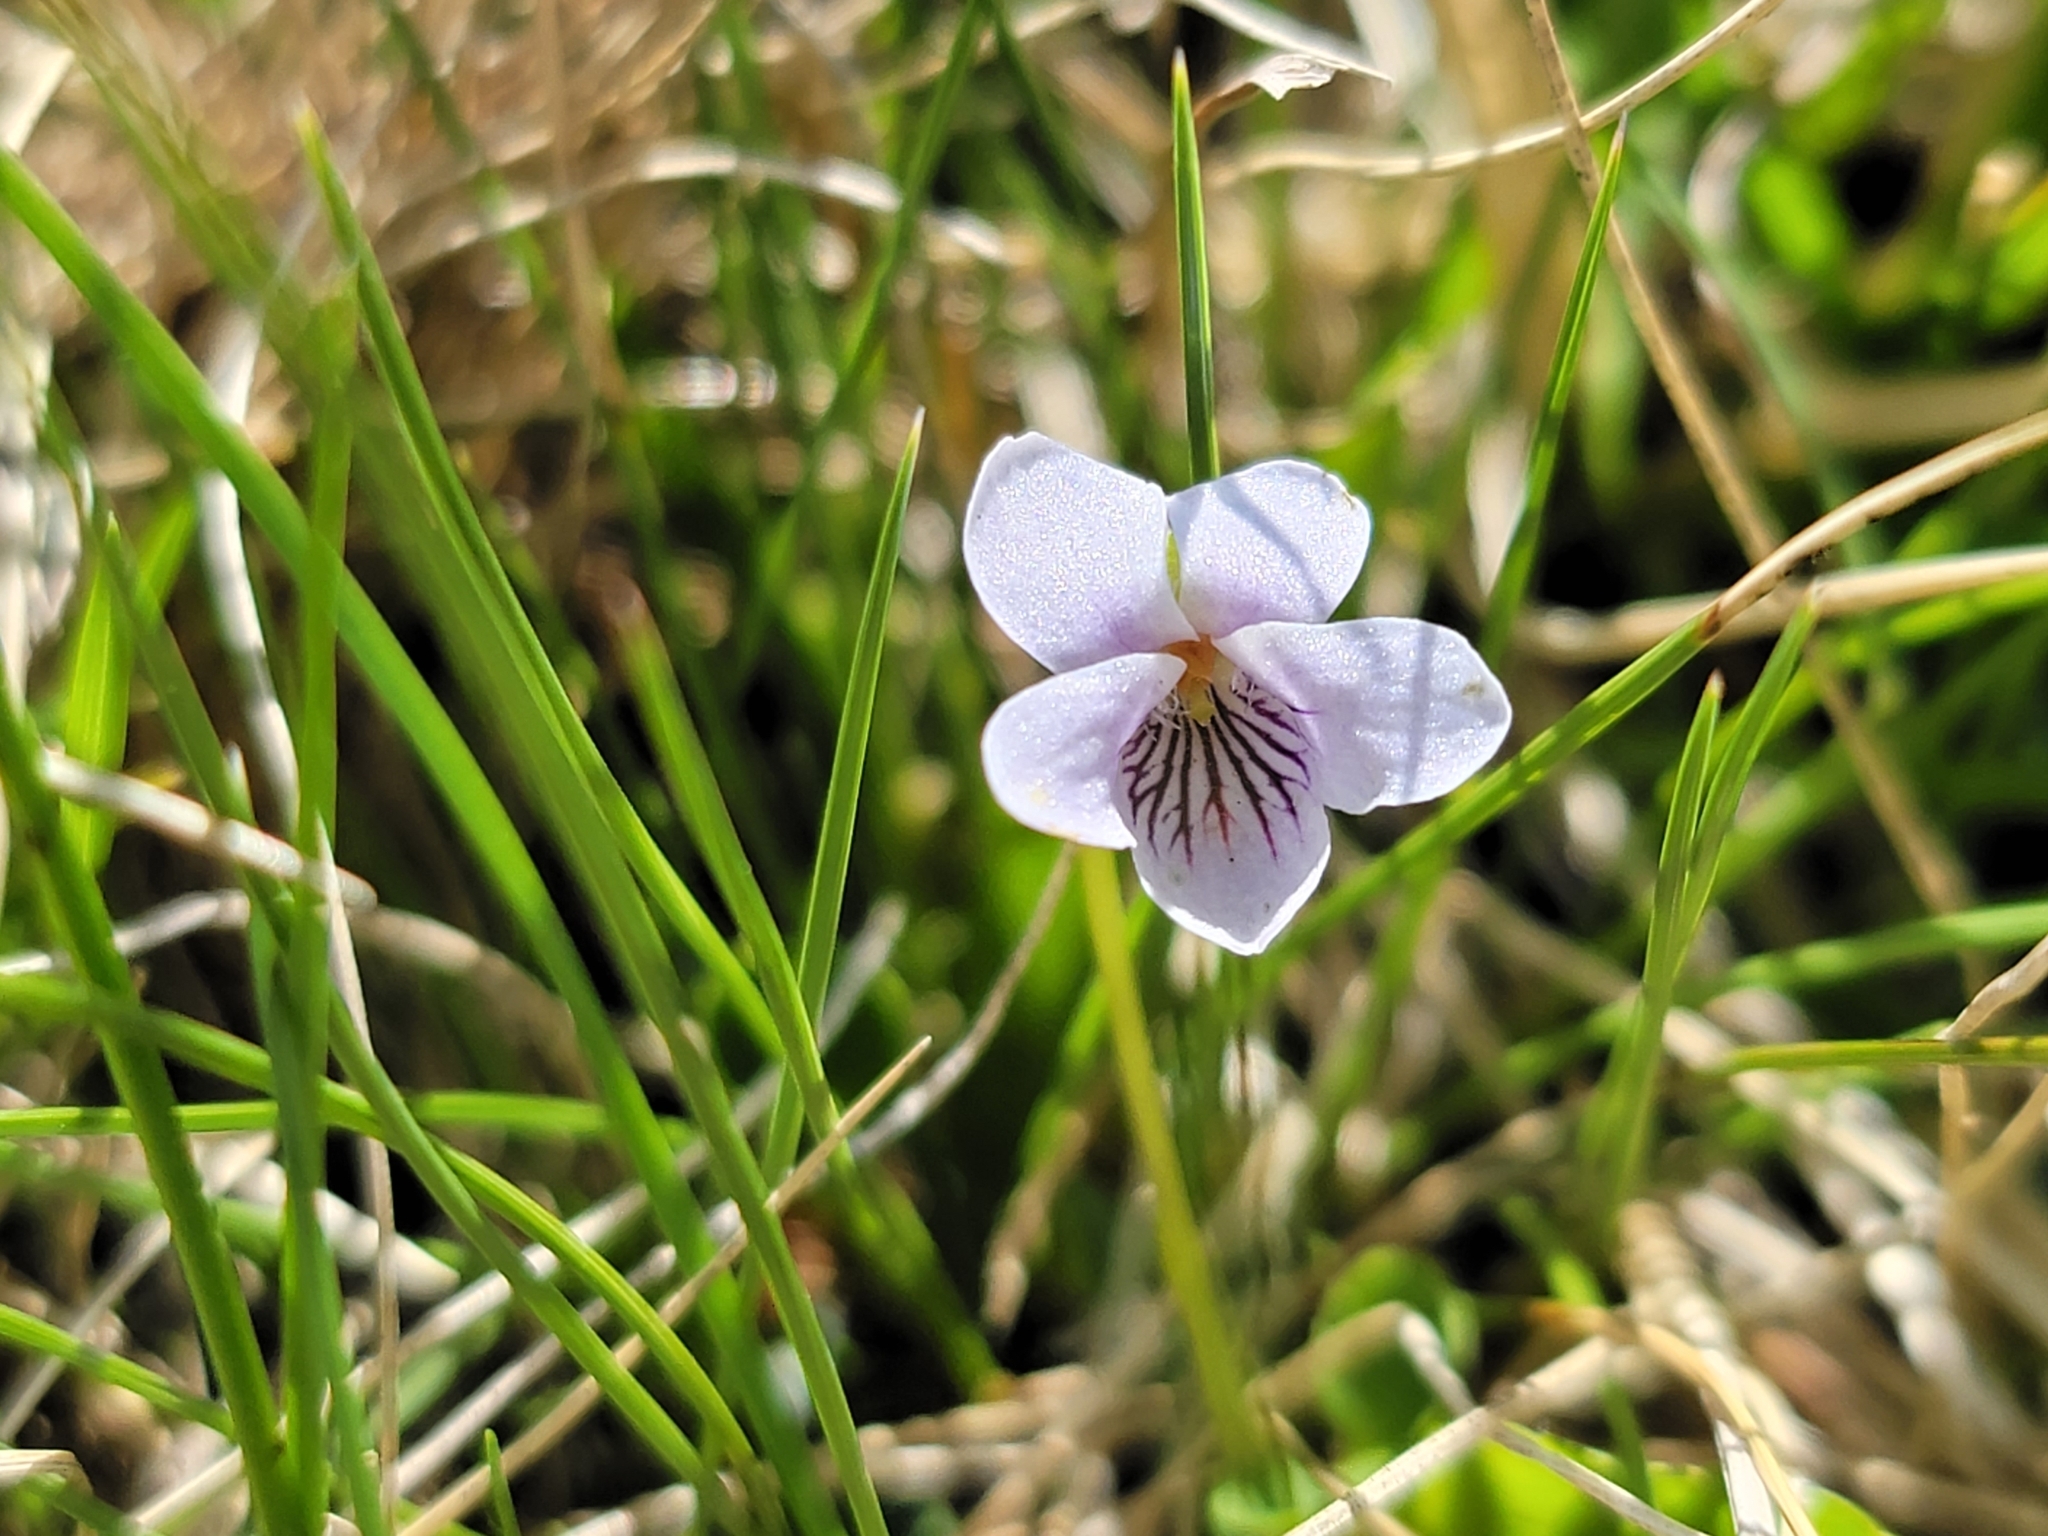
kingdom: Plantae
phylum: Tracheophyta
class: Magnoliopsida
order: Malpighiales
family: Violaceae
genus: Viola
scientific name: Viola palustris
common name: Marsh violet
